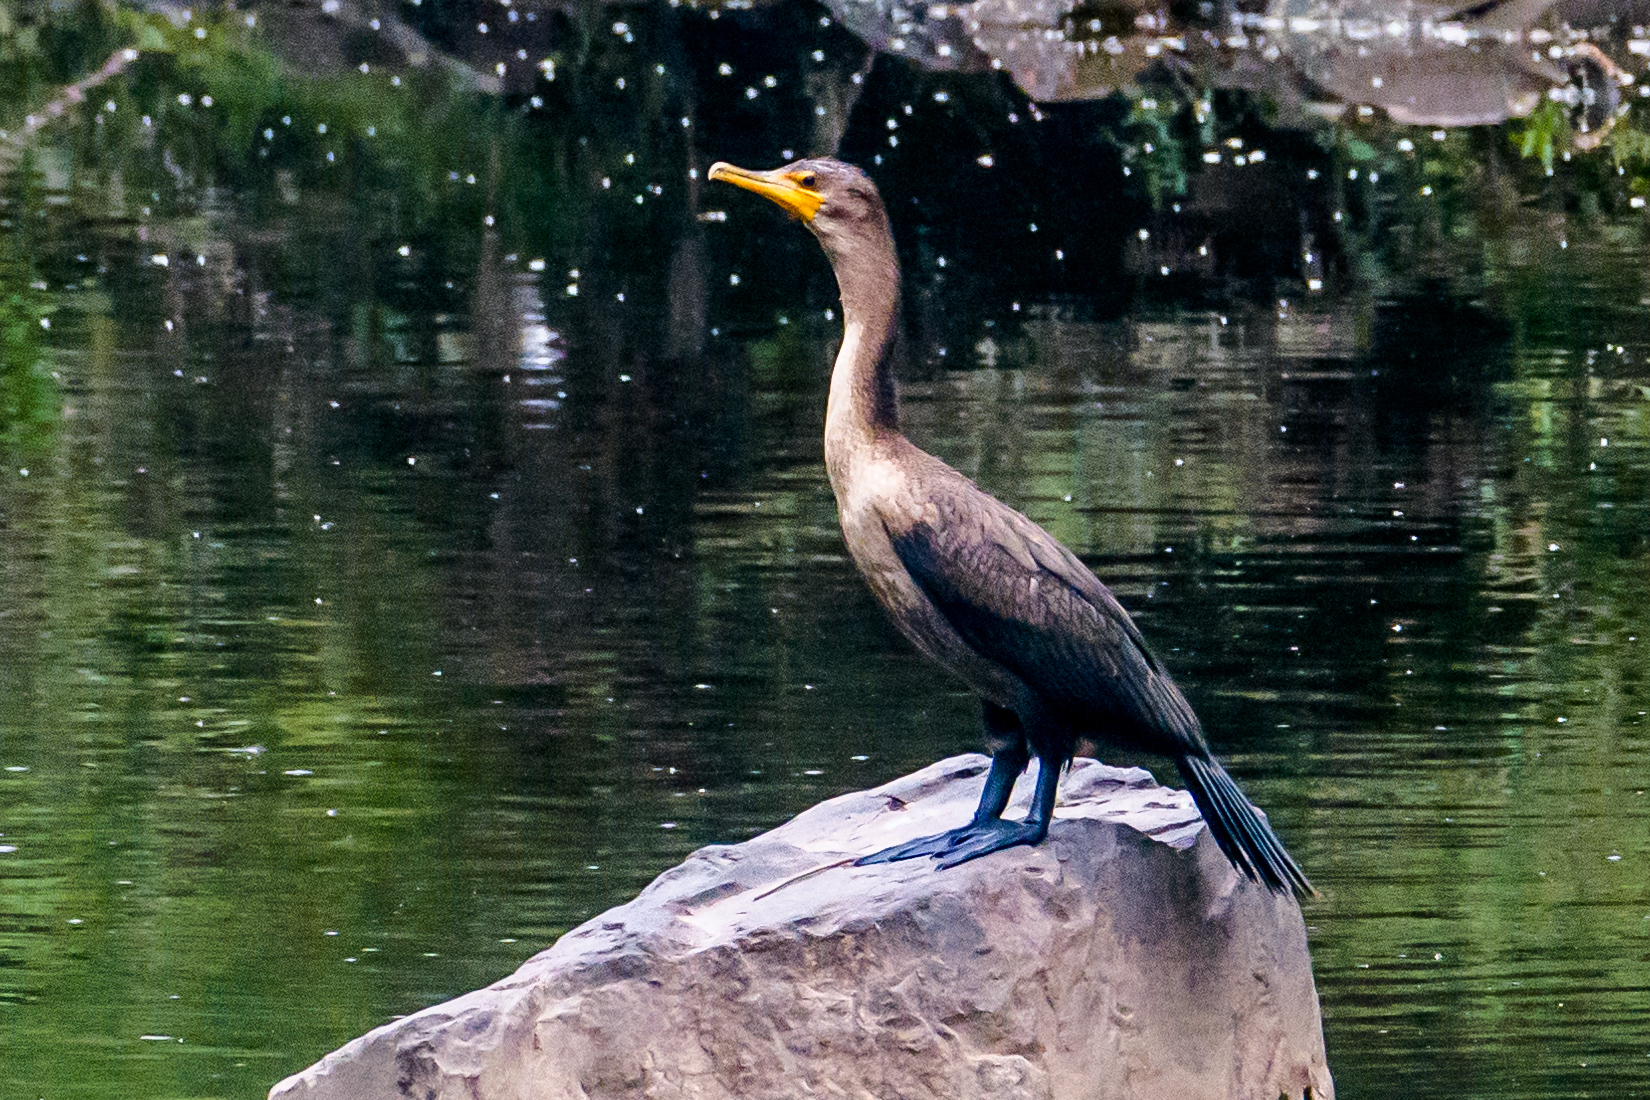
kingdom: Animalia
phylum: Chordata
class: Aves
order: Suliformes
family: Phalacrocoracidae
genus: Phalacrocorax
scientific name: Phalacrocorax auritus
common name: Double-crested cormorant
